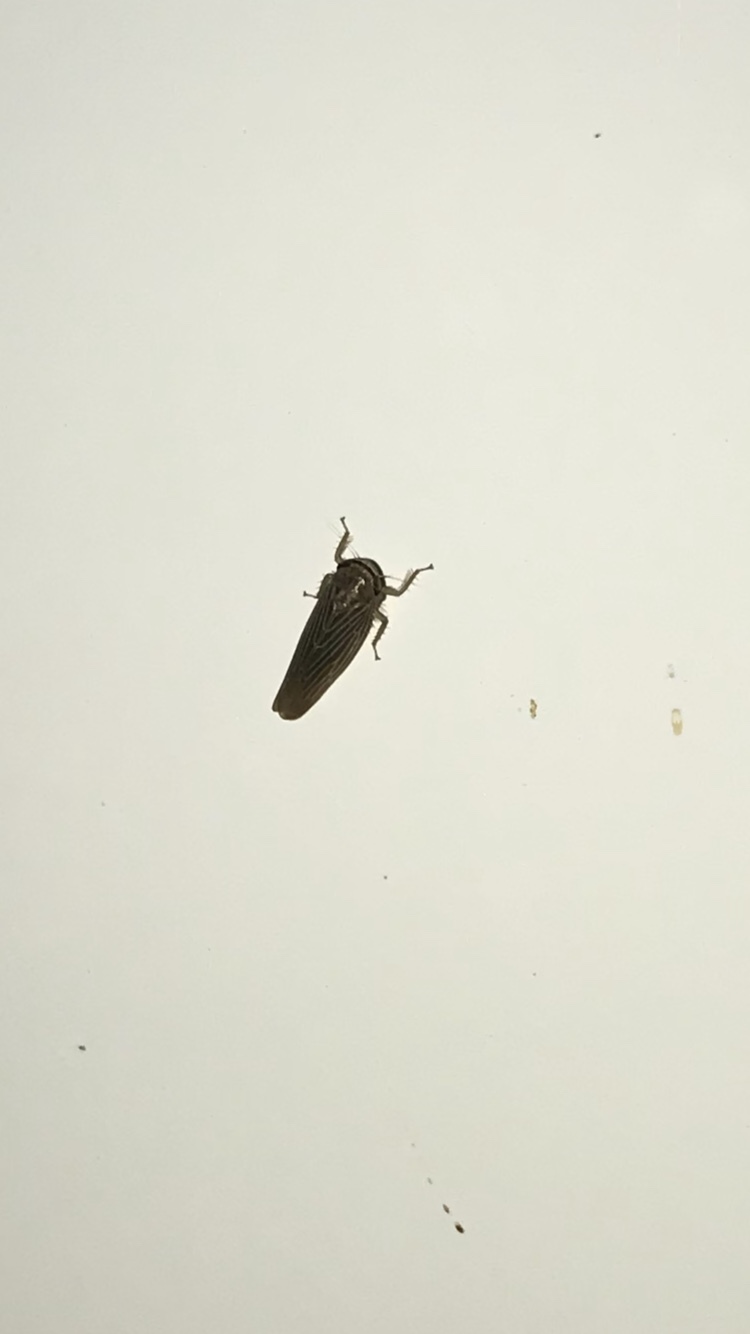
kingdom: Animalia
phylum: Arthropoda
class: Insecta
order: Hemiptera
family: Cicadellidae
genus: Chlorotettix
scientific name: Chlorotettix necopinus
